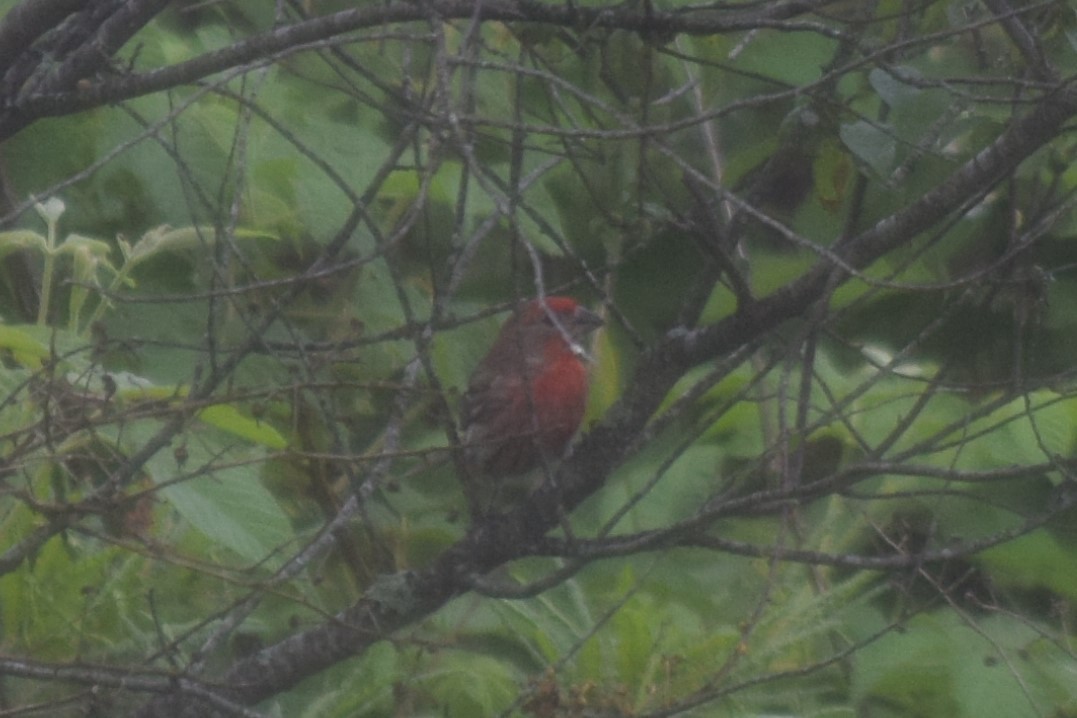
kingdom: Animalia
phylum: Chordata
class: Aves
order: Passeriformes
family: Fringillidae
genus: Haemorhous
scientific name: Haemorhous mexicanus
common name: House finch
